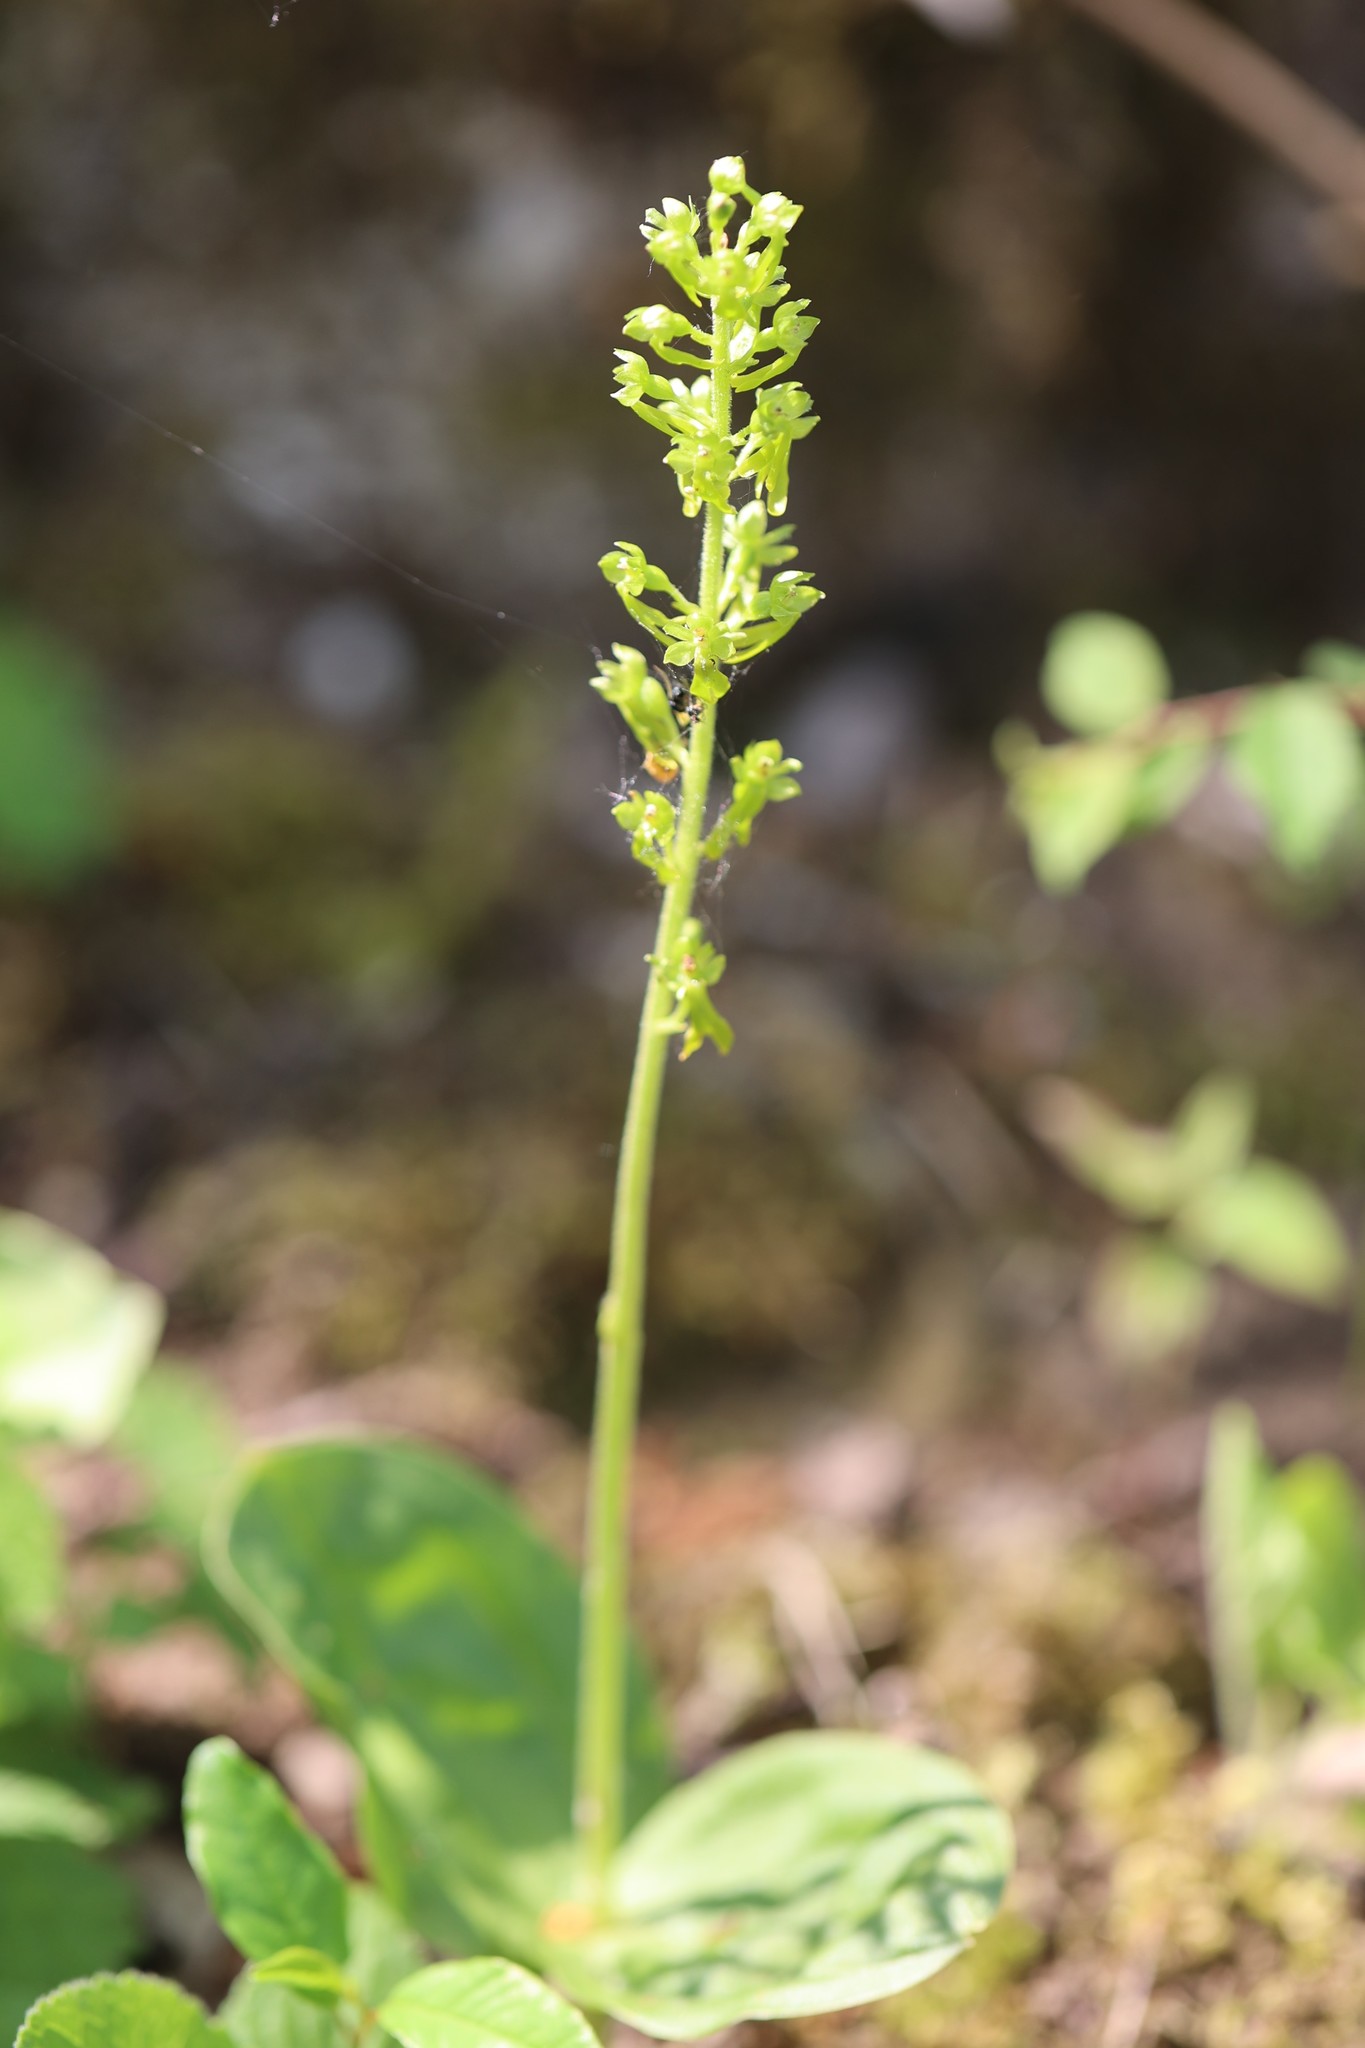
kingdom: Plantae
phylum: Tracheophyta
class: Liliopsida
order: Asparagales
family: Orchidaceae
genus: Neottia
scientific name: Neottia ovata
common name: Common twayblade
